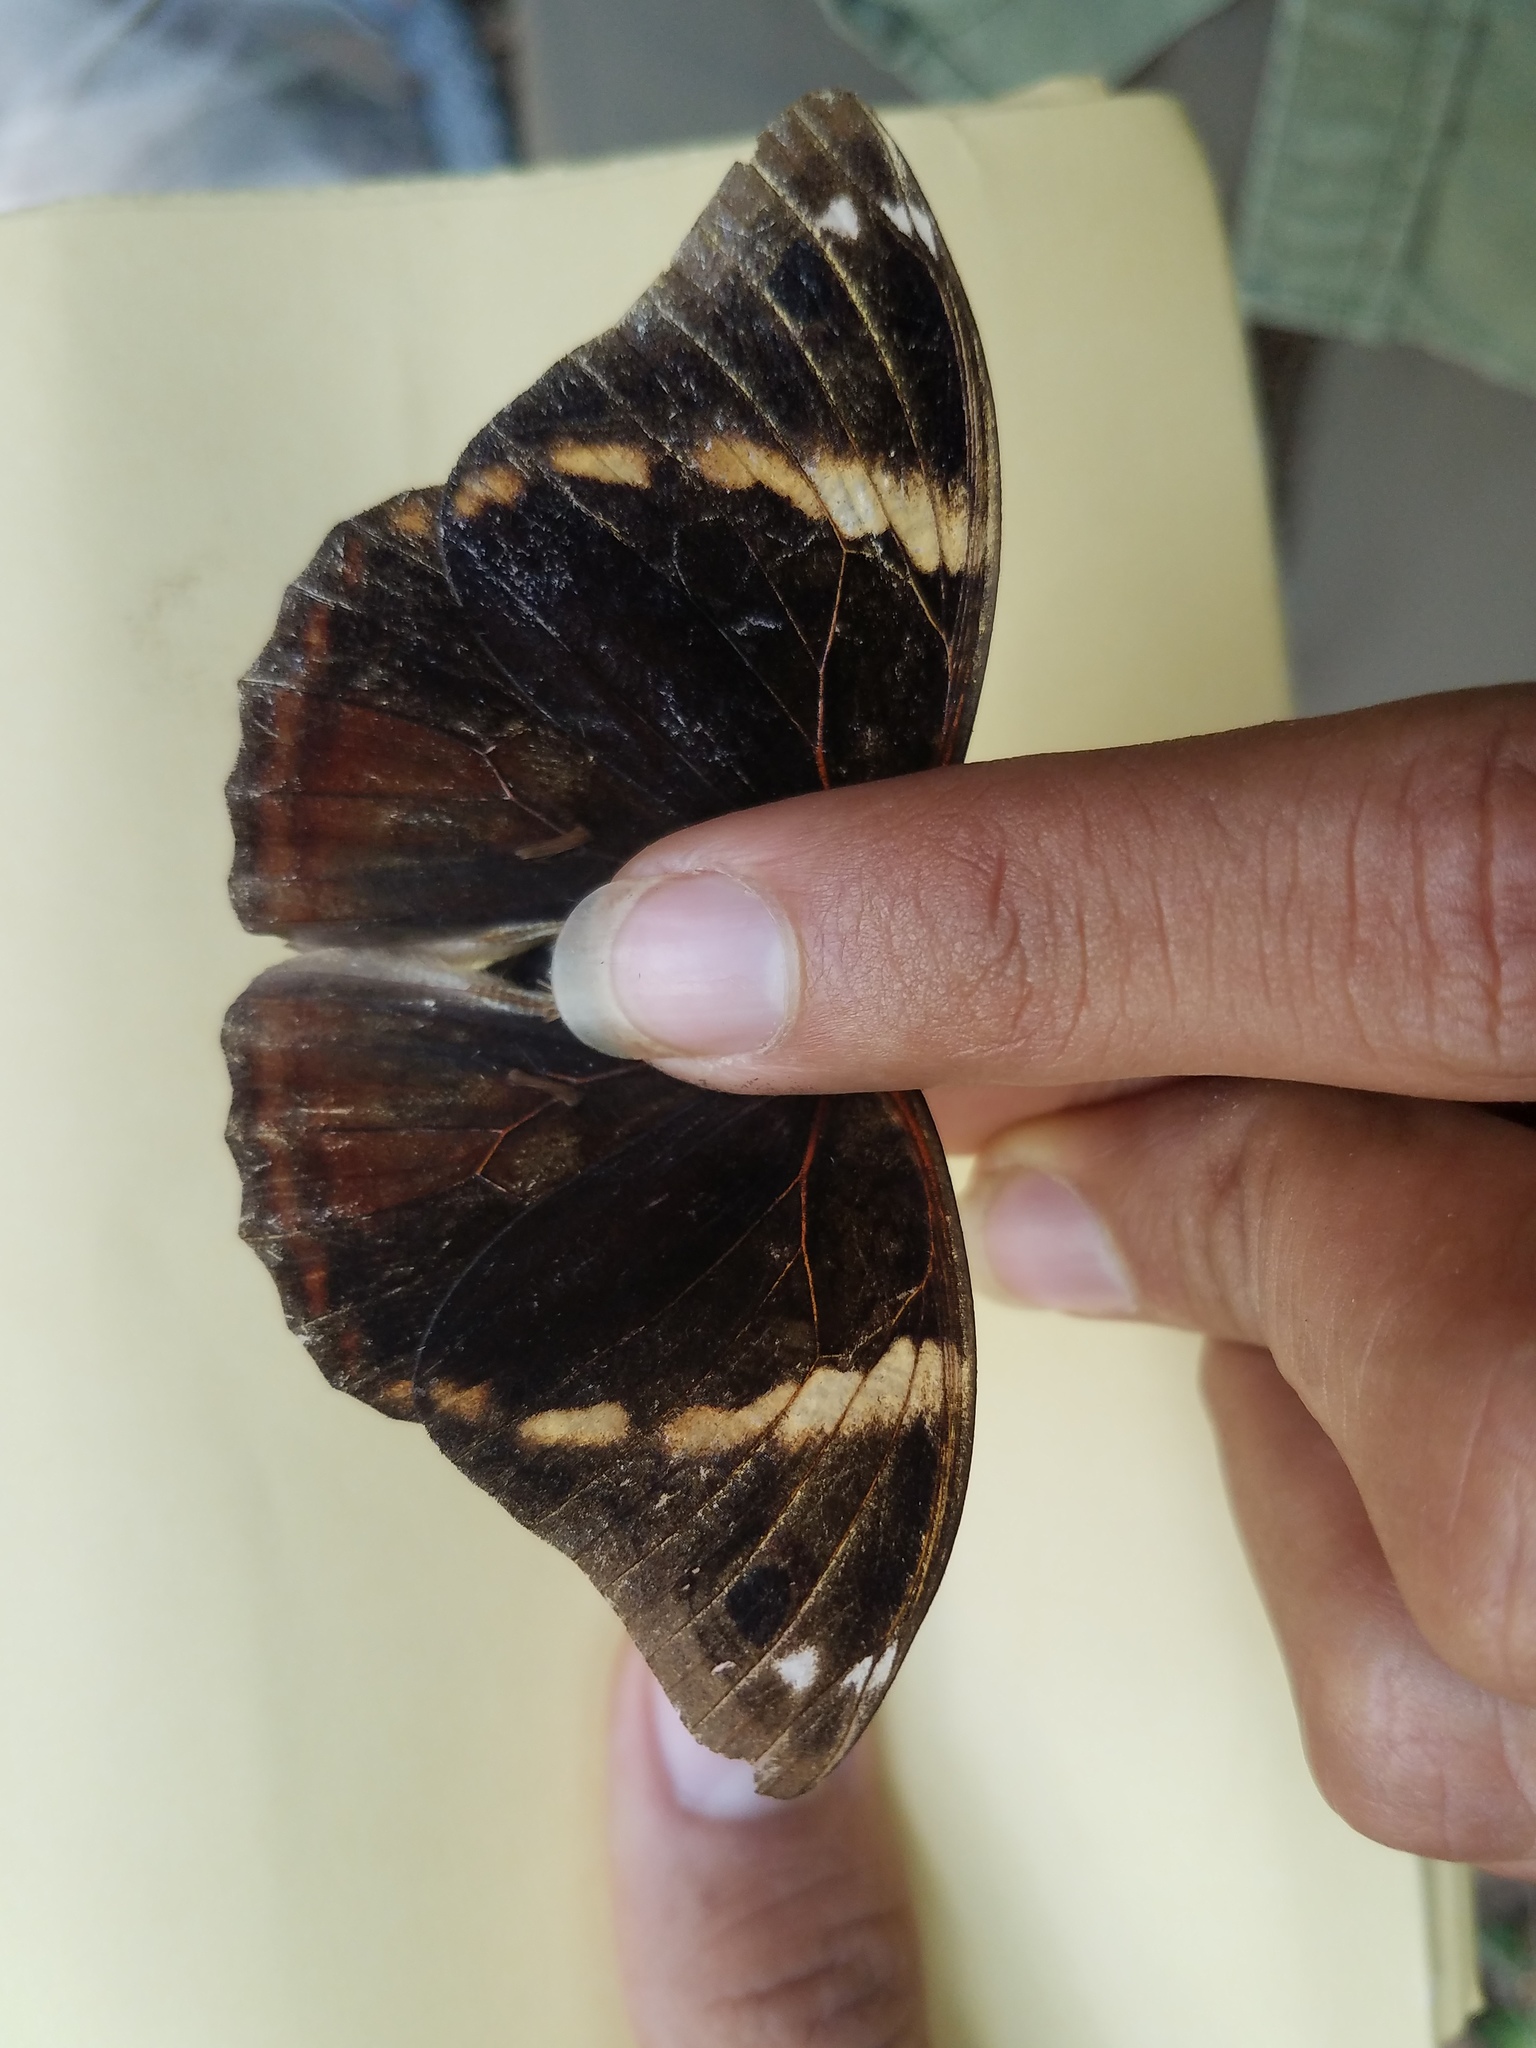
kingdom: Animalia
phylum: Arthropoda
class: Insecta
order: Lepidoptera
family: Nymphalidae
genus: Opsiphanes
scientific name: Opsiphanes cassiae
